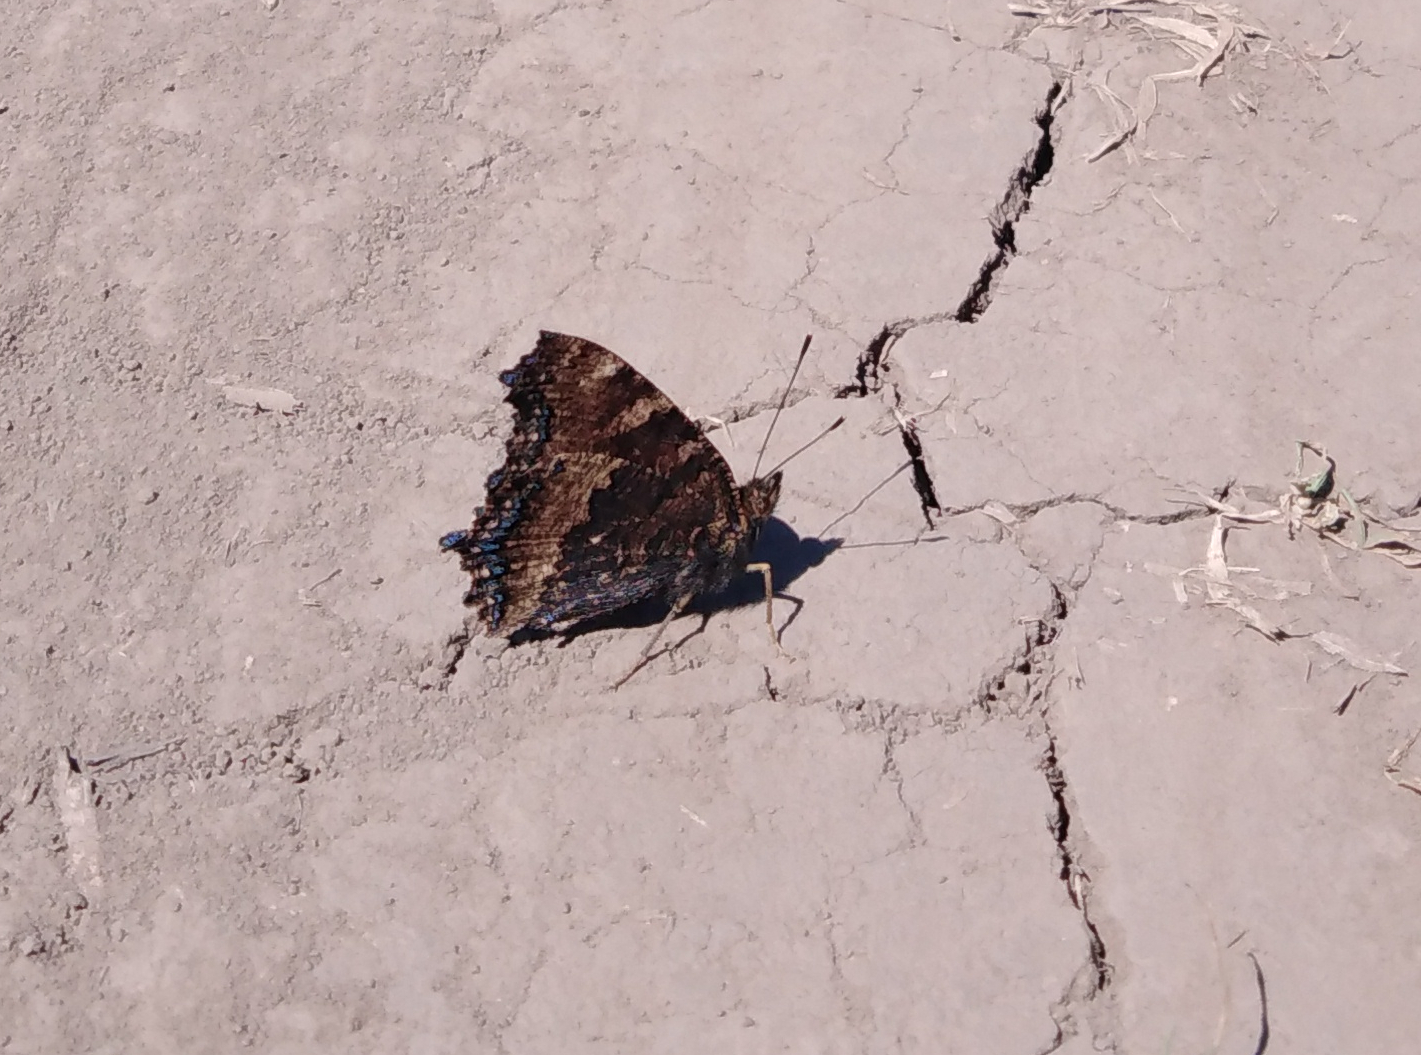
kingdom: Animalia
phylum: Arthropoda
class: Insecta
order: Lepidoptera
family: Nymphalidae
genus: Nymphalis
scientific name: Nymphalis xanthomelas
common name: Scarce tortoiseshell
